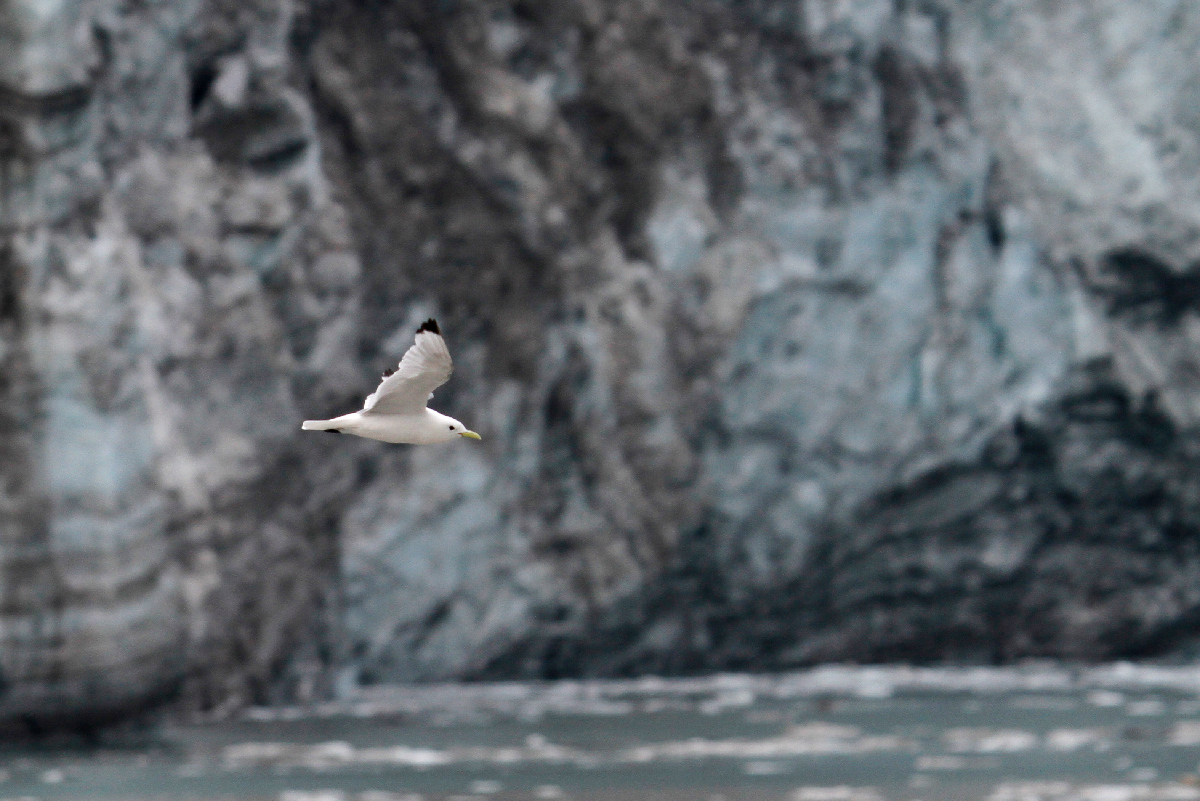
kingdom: Animalia
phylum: Chordata
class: Aves
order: Charadriiformes
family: Laridae
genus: Rissa
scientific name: Rissa tridactyla
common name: Black-legged kittiwake
